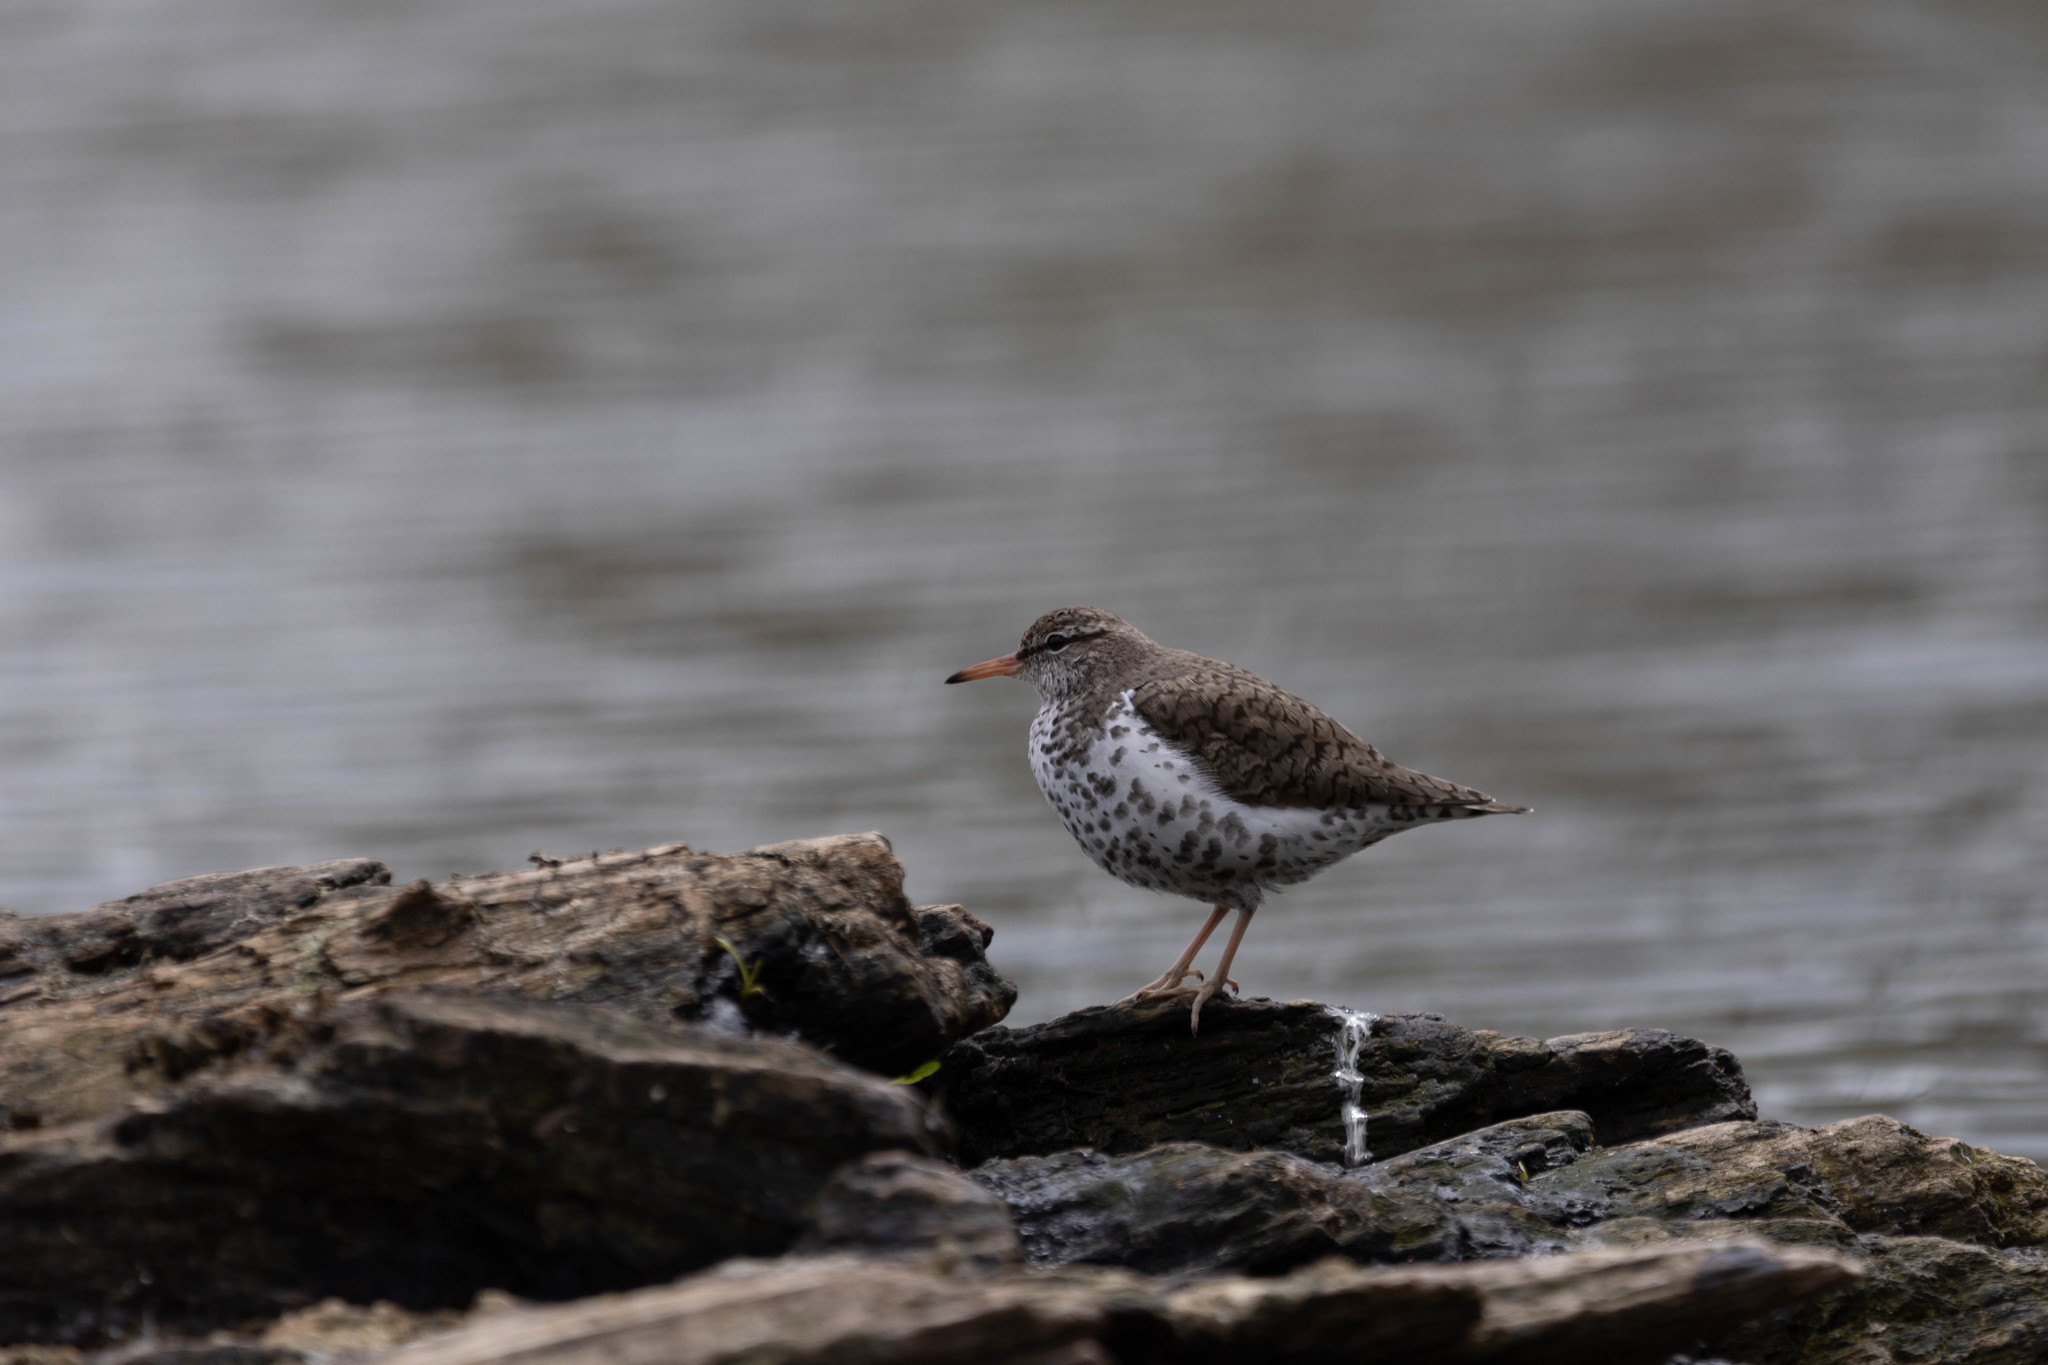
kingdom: Animalia
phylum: Chordata
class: Aves
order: Charadriiformes
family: Scolopacidae
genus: Actitis
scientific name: Actitis macularius
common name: Spotted sandpiper
